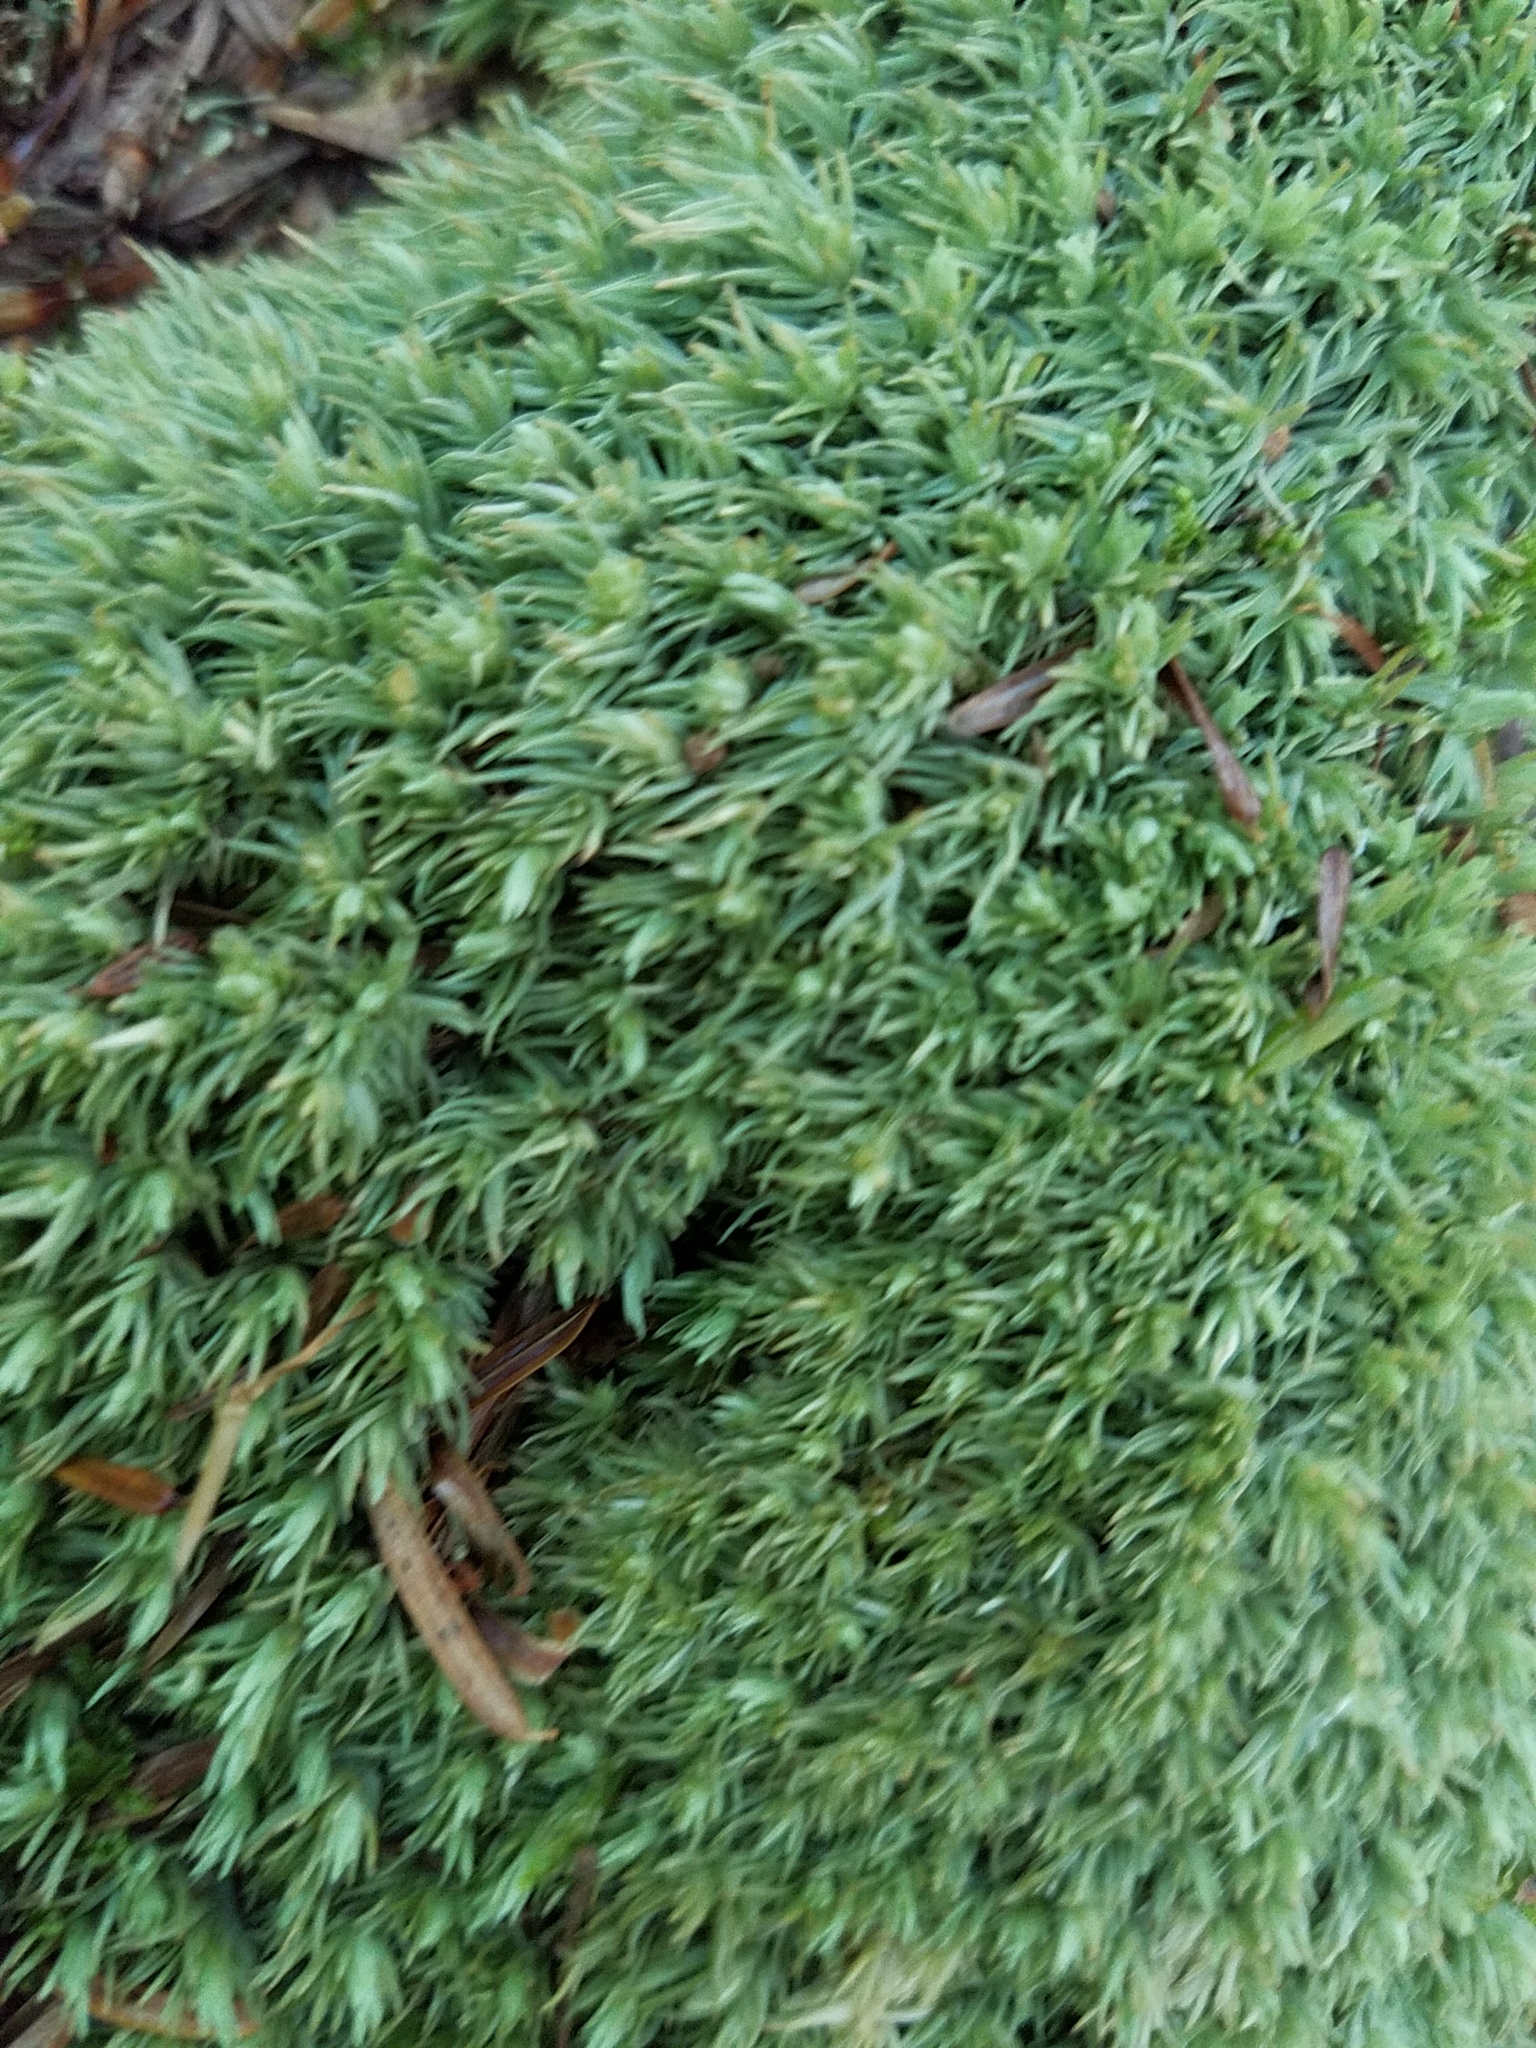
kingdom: Plantae
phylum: Bryophyta
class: Bryopsida
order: Dicranales
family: Leucobryaceae
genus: Leucobryum
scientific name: Leucobryum glaucum
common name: Large white-moss
